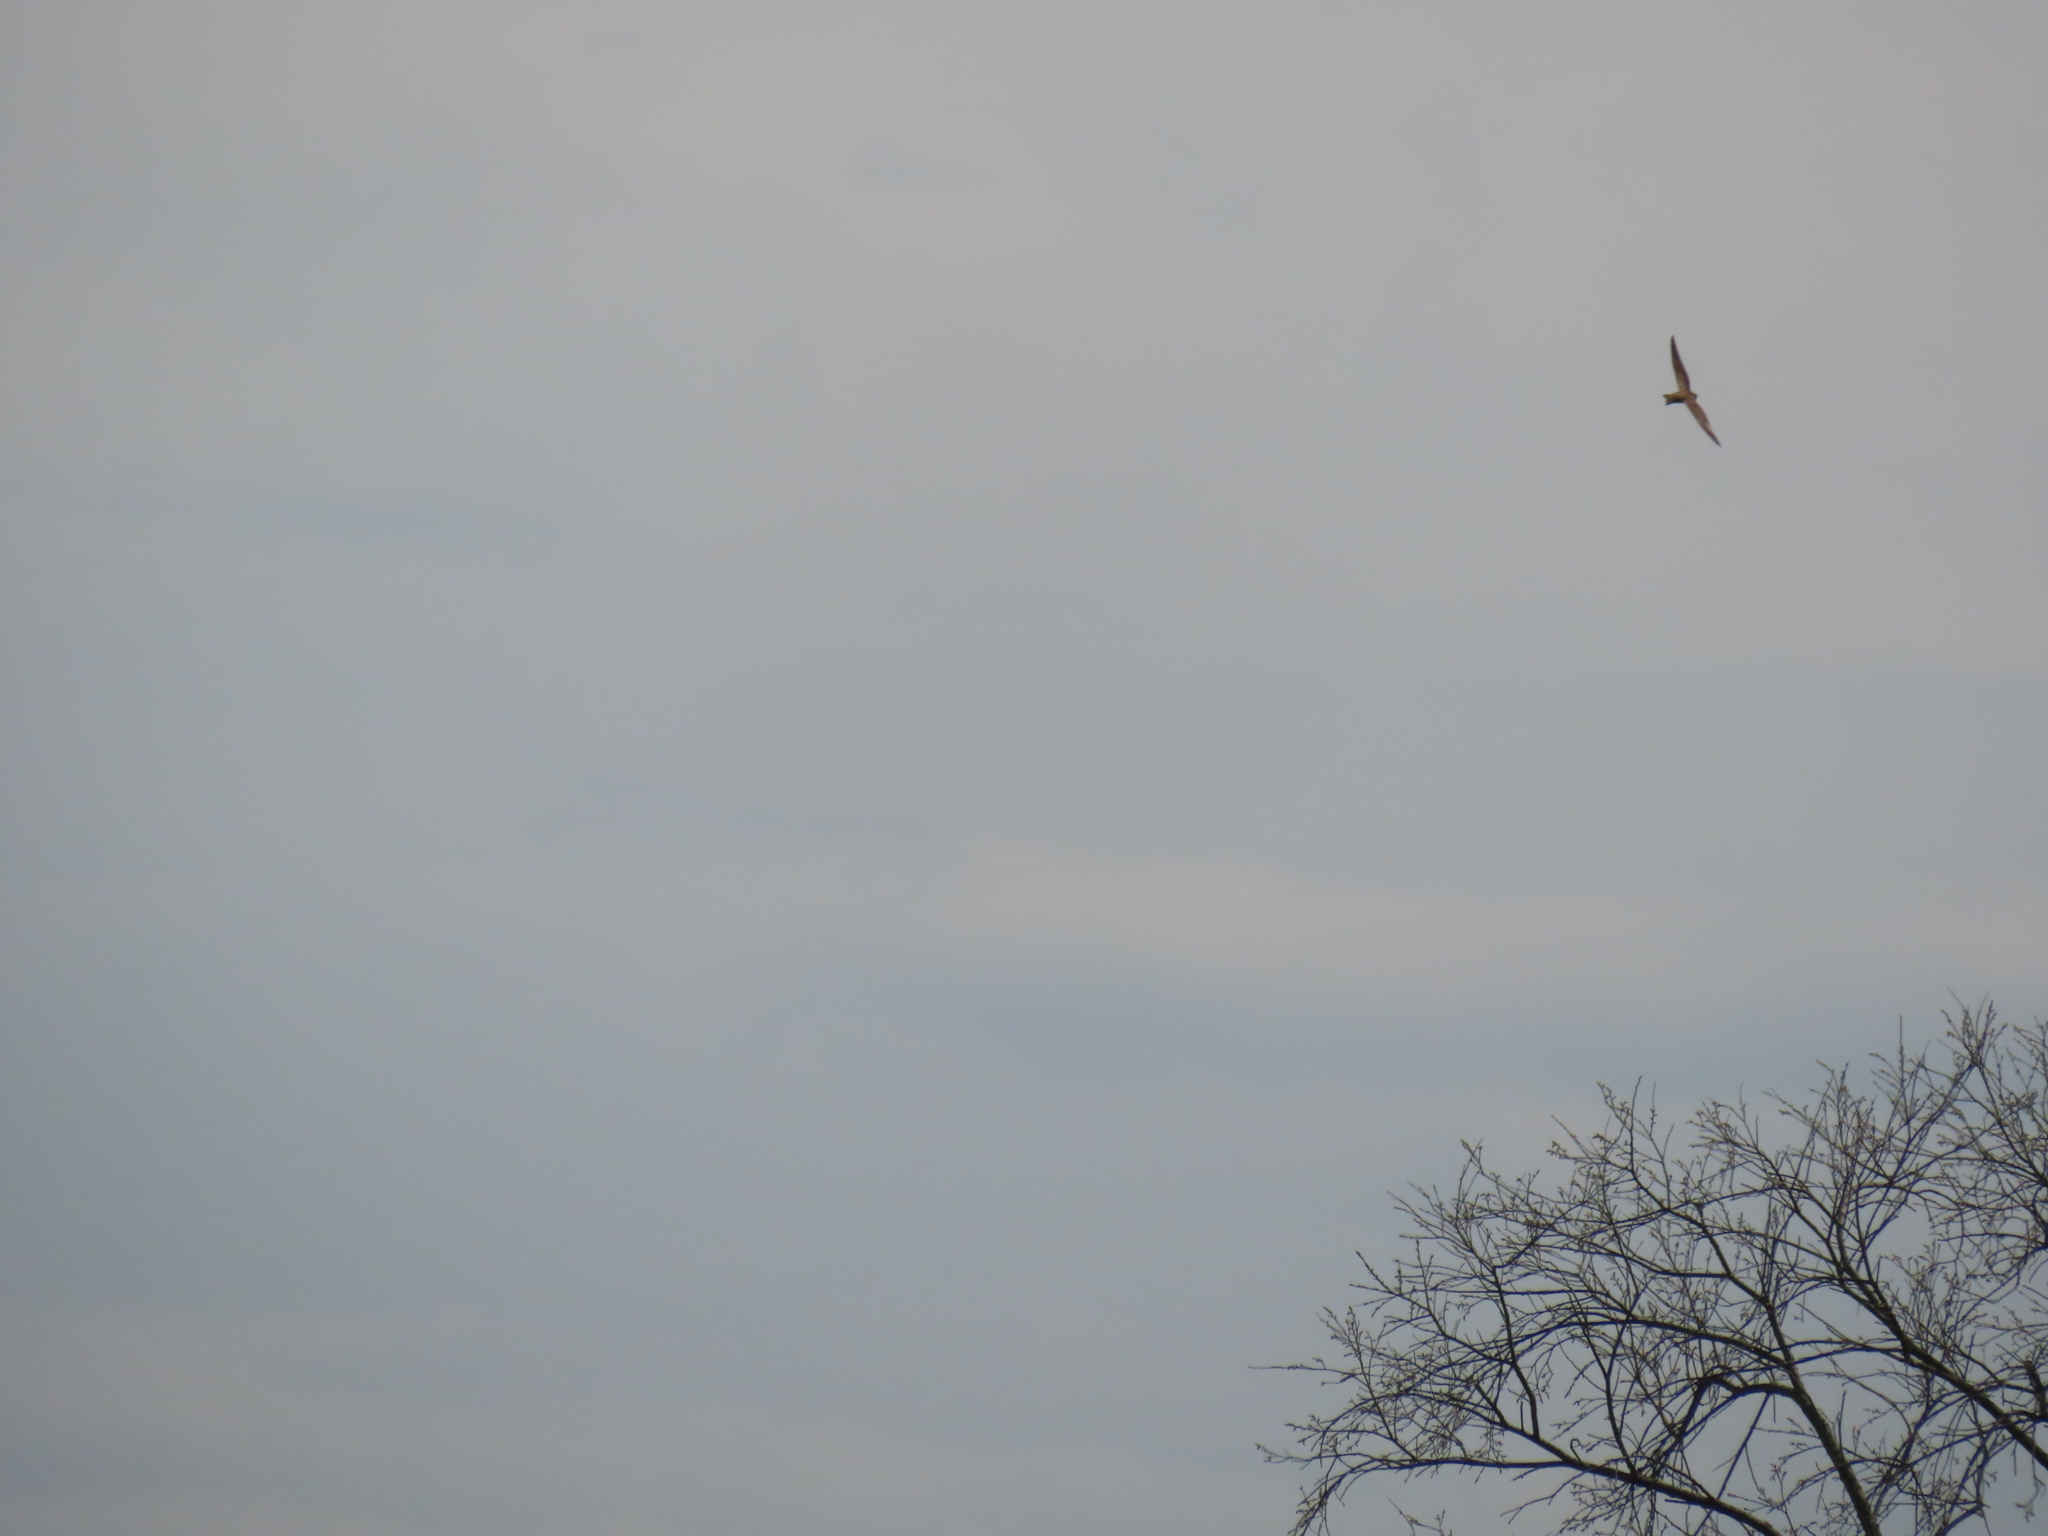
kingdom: Animalia
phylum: Chordata
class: Aves
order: Passeriformes
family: Hirundinidae
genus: Stelgidopteryx
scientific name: Stelgidopteryx serripennis
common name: Northern rough-winged swallow
